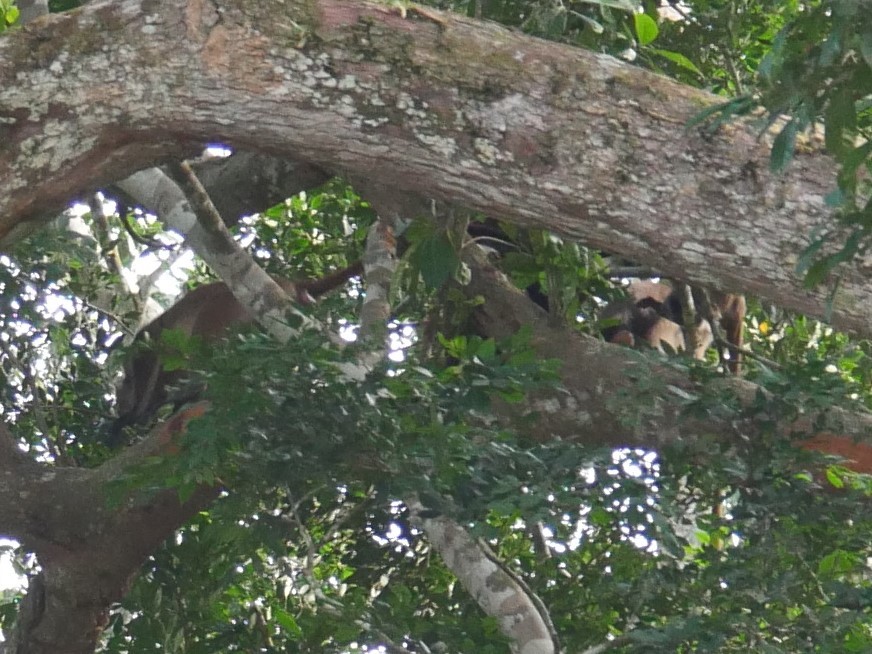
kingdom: Animalia
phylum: Chordata
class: Mammalia
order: Primates
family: Cercopithecidae
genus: Piliocolobus
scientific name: Piliocolobus oustaleti
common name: Oustalet’s red colobus
